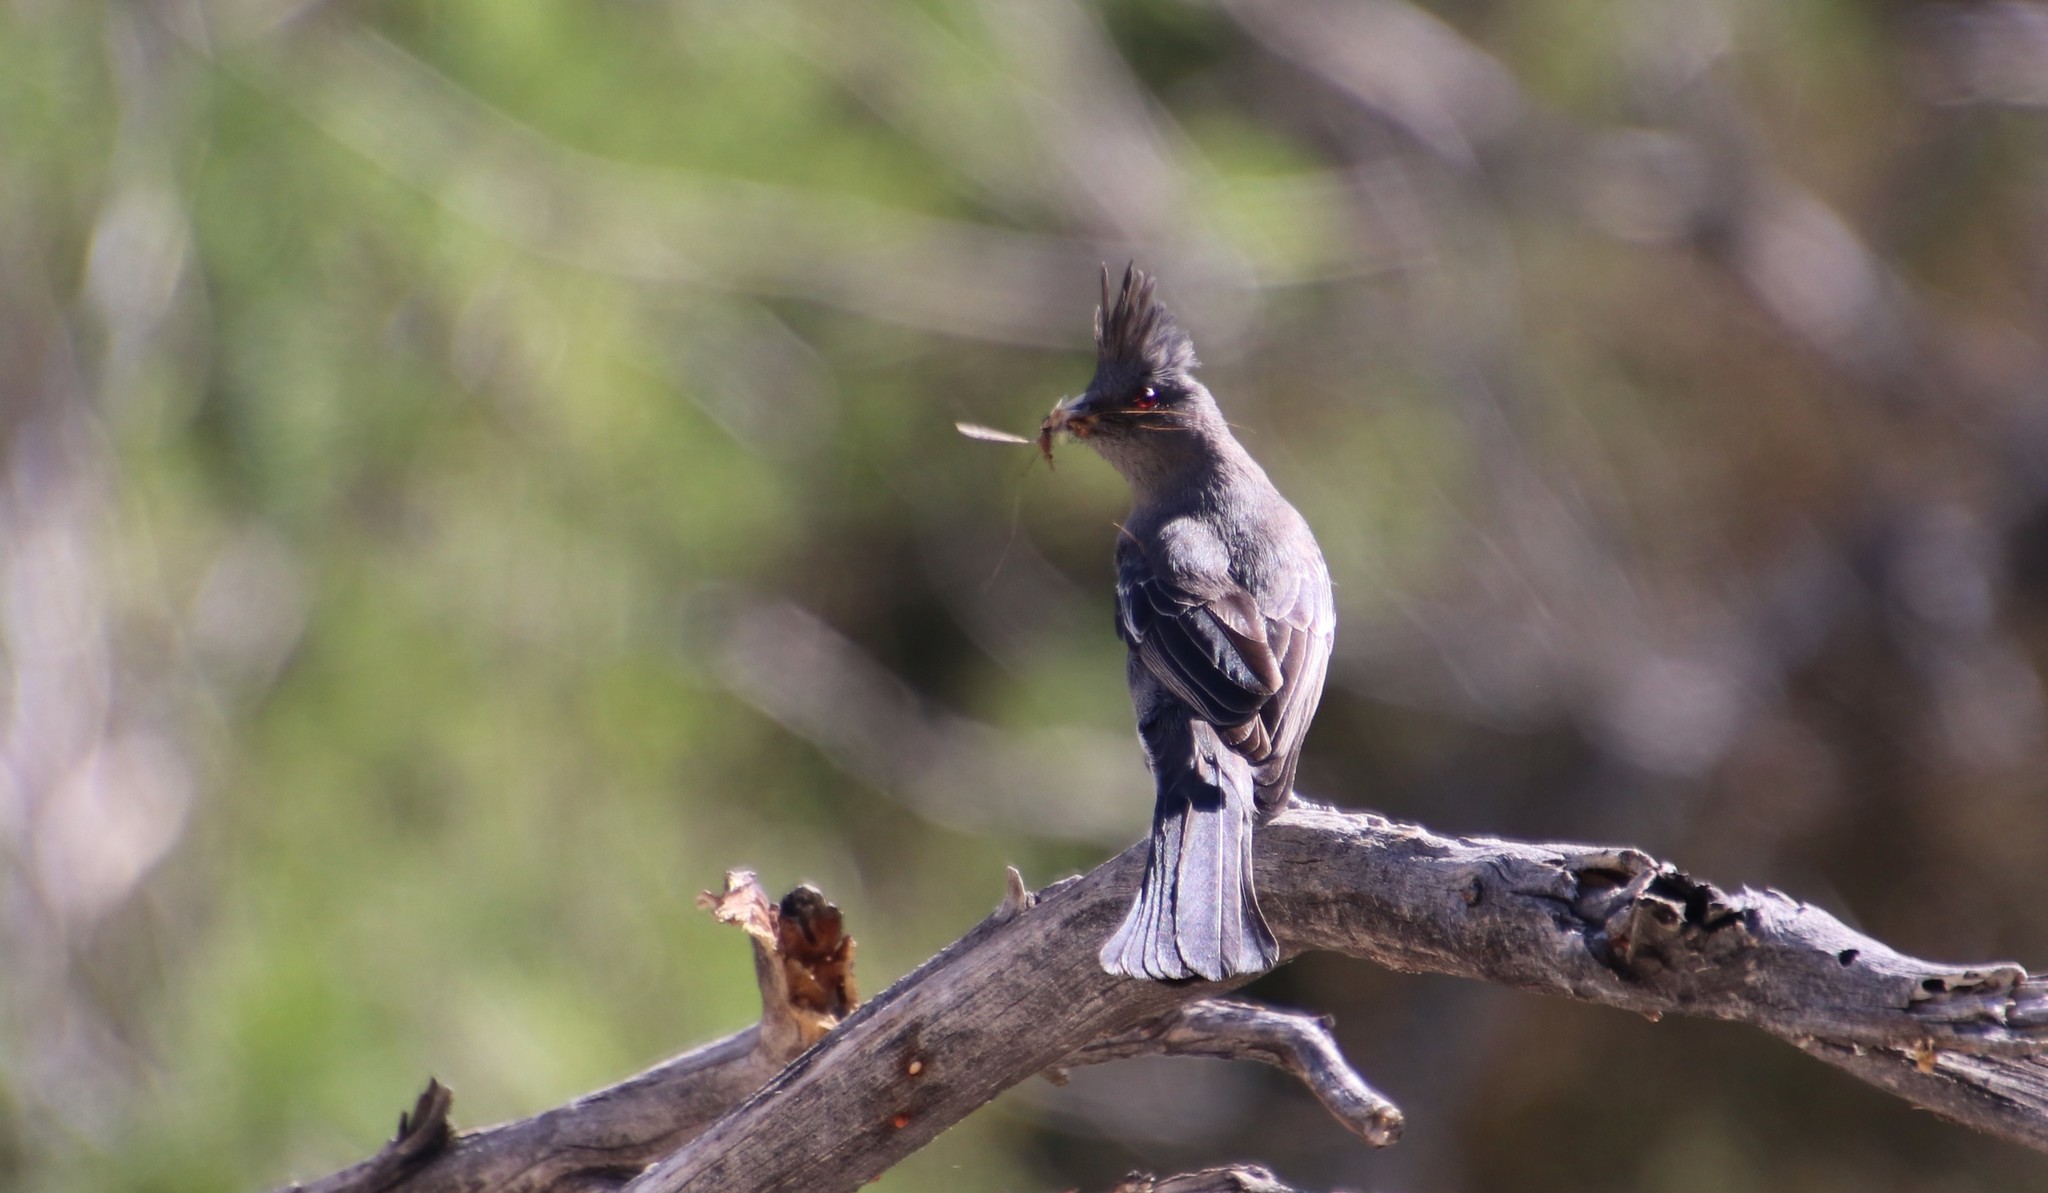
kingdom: Animalia
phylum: Chordata
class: Aves
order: Passeriformes
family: Ptilogonatidae
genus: Phainopepla
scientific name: Phainopepla nitens
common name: Phainopepla
